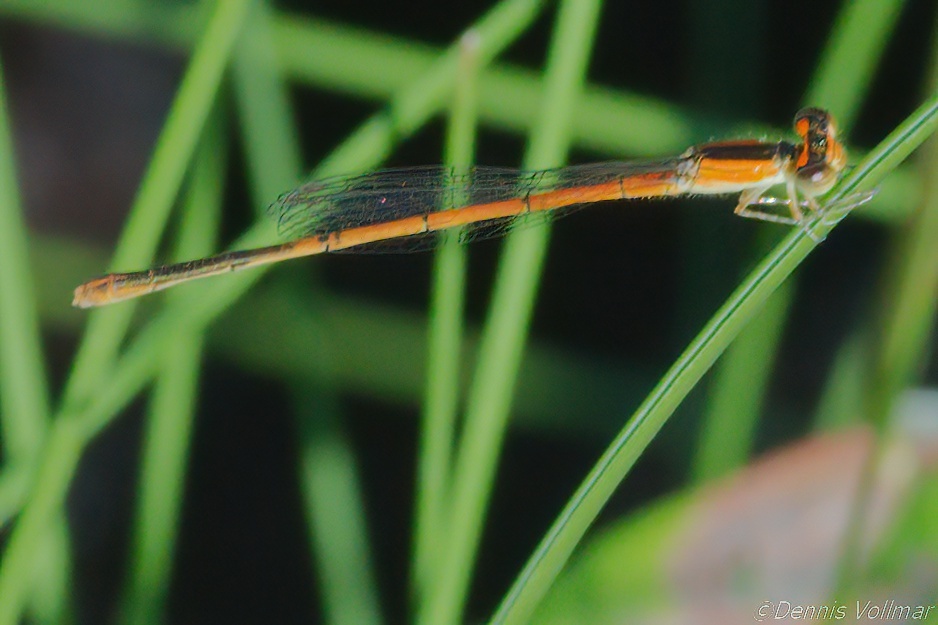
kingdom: Animalia
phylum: Arthropoda
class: Insecta
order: Odonata
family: Coenagrionidae
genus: Ischnura
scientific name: Ischnura hastata
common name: Citrine forktail
